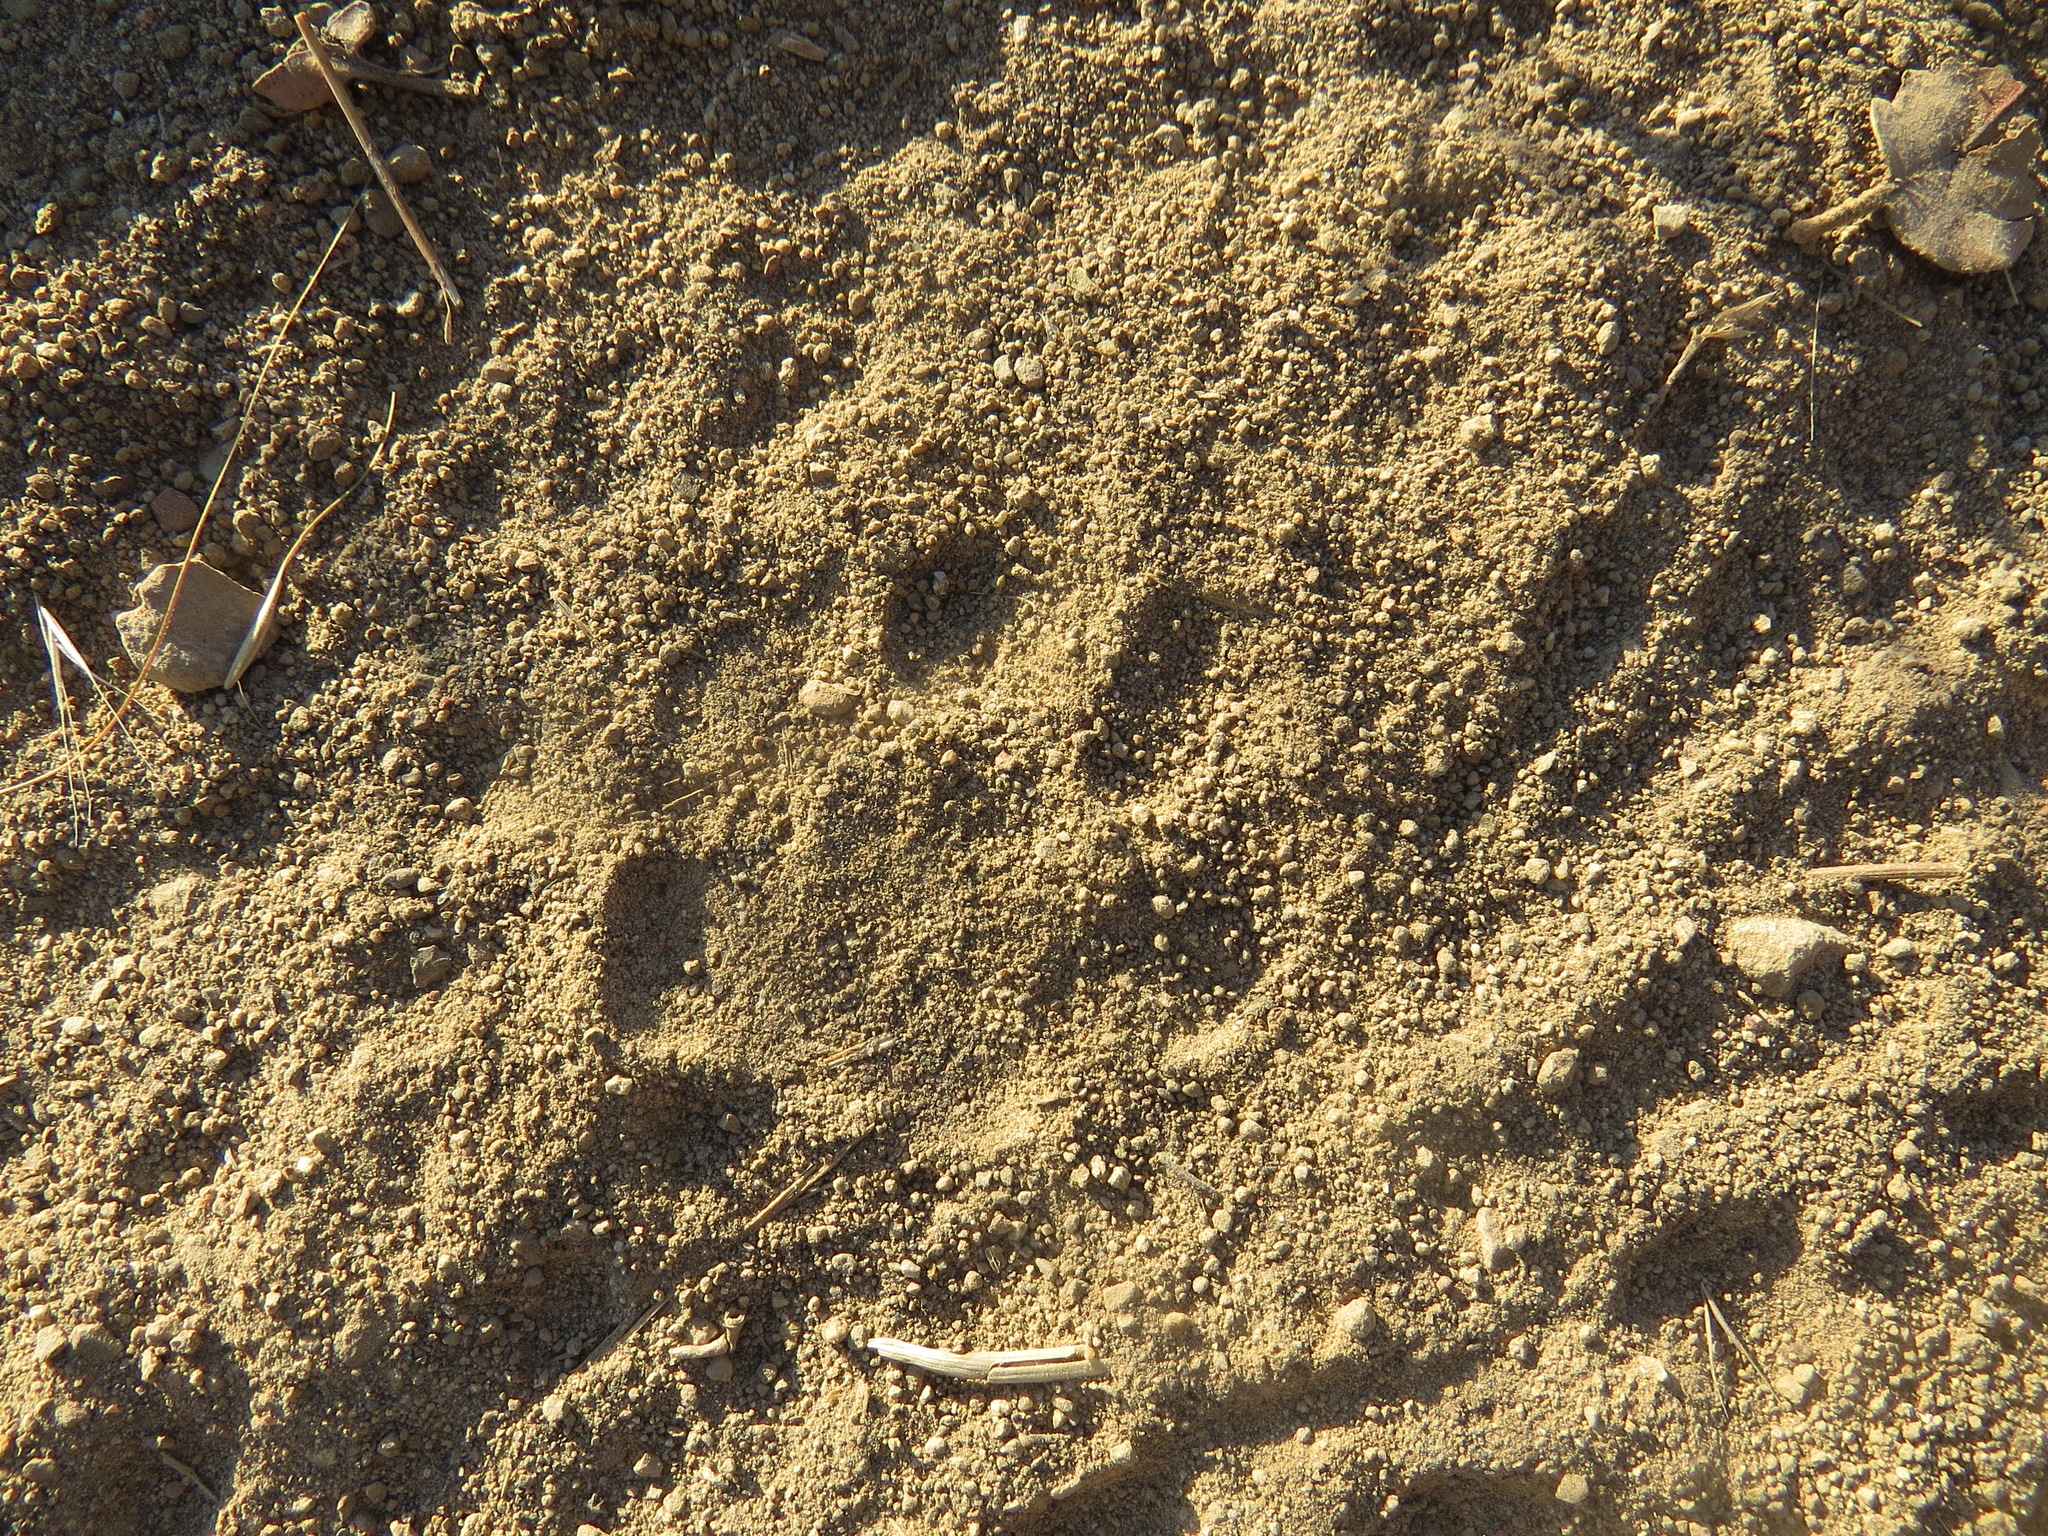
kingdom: Animalia
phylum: Chordata
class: Mammalia
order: Carnivora
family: Felidae
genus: Lynx
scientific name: Lynx rufus
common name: Bobcat
